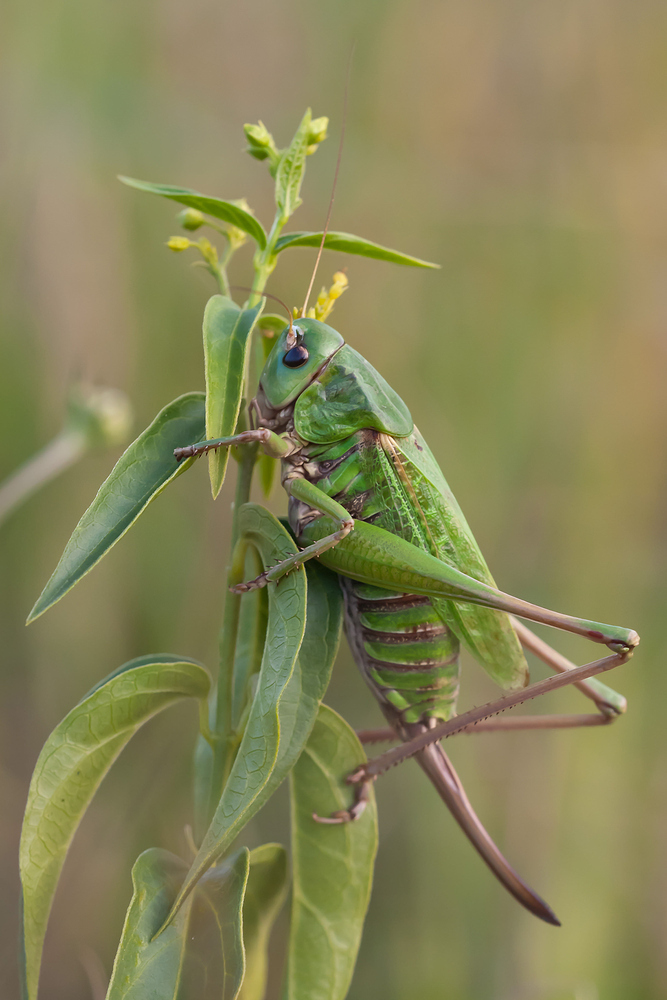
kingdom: Animalia
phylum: Arthropoda
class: Insecta
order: Orthoptera
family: Tettigoniidae
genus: Decticus
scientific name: Decticus verrucivorus
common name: Wart-biter
